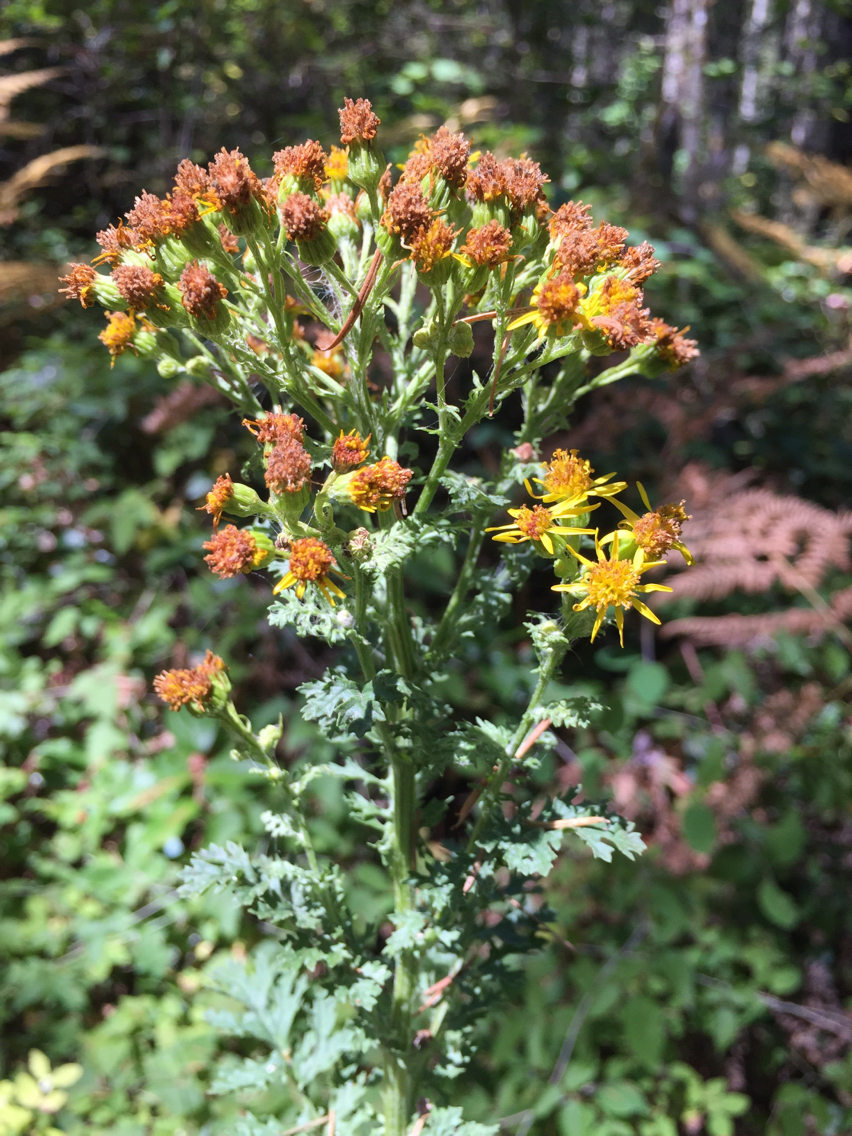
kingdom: Plantae
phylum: Tracheophyta
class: Magnoliopsida
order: Asterales
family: Asteraceae
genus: Jacobaea
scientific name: Jacobaea vulgaris
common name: Stinking willie
